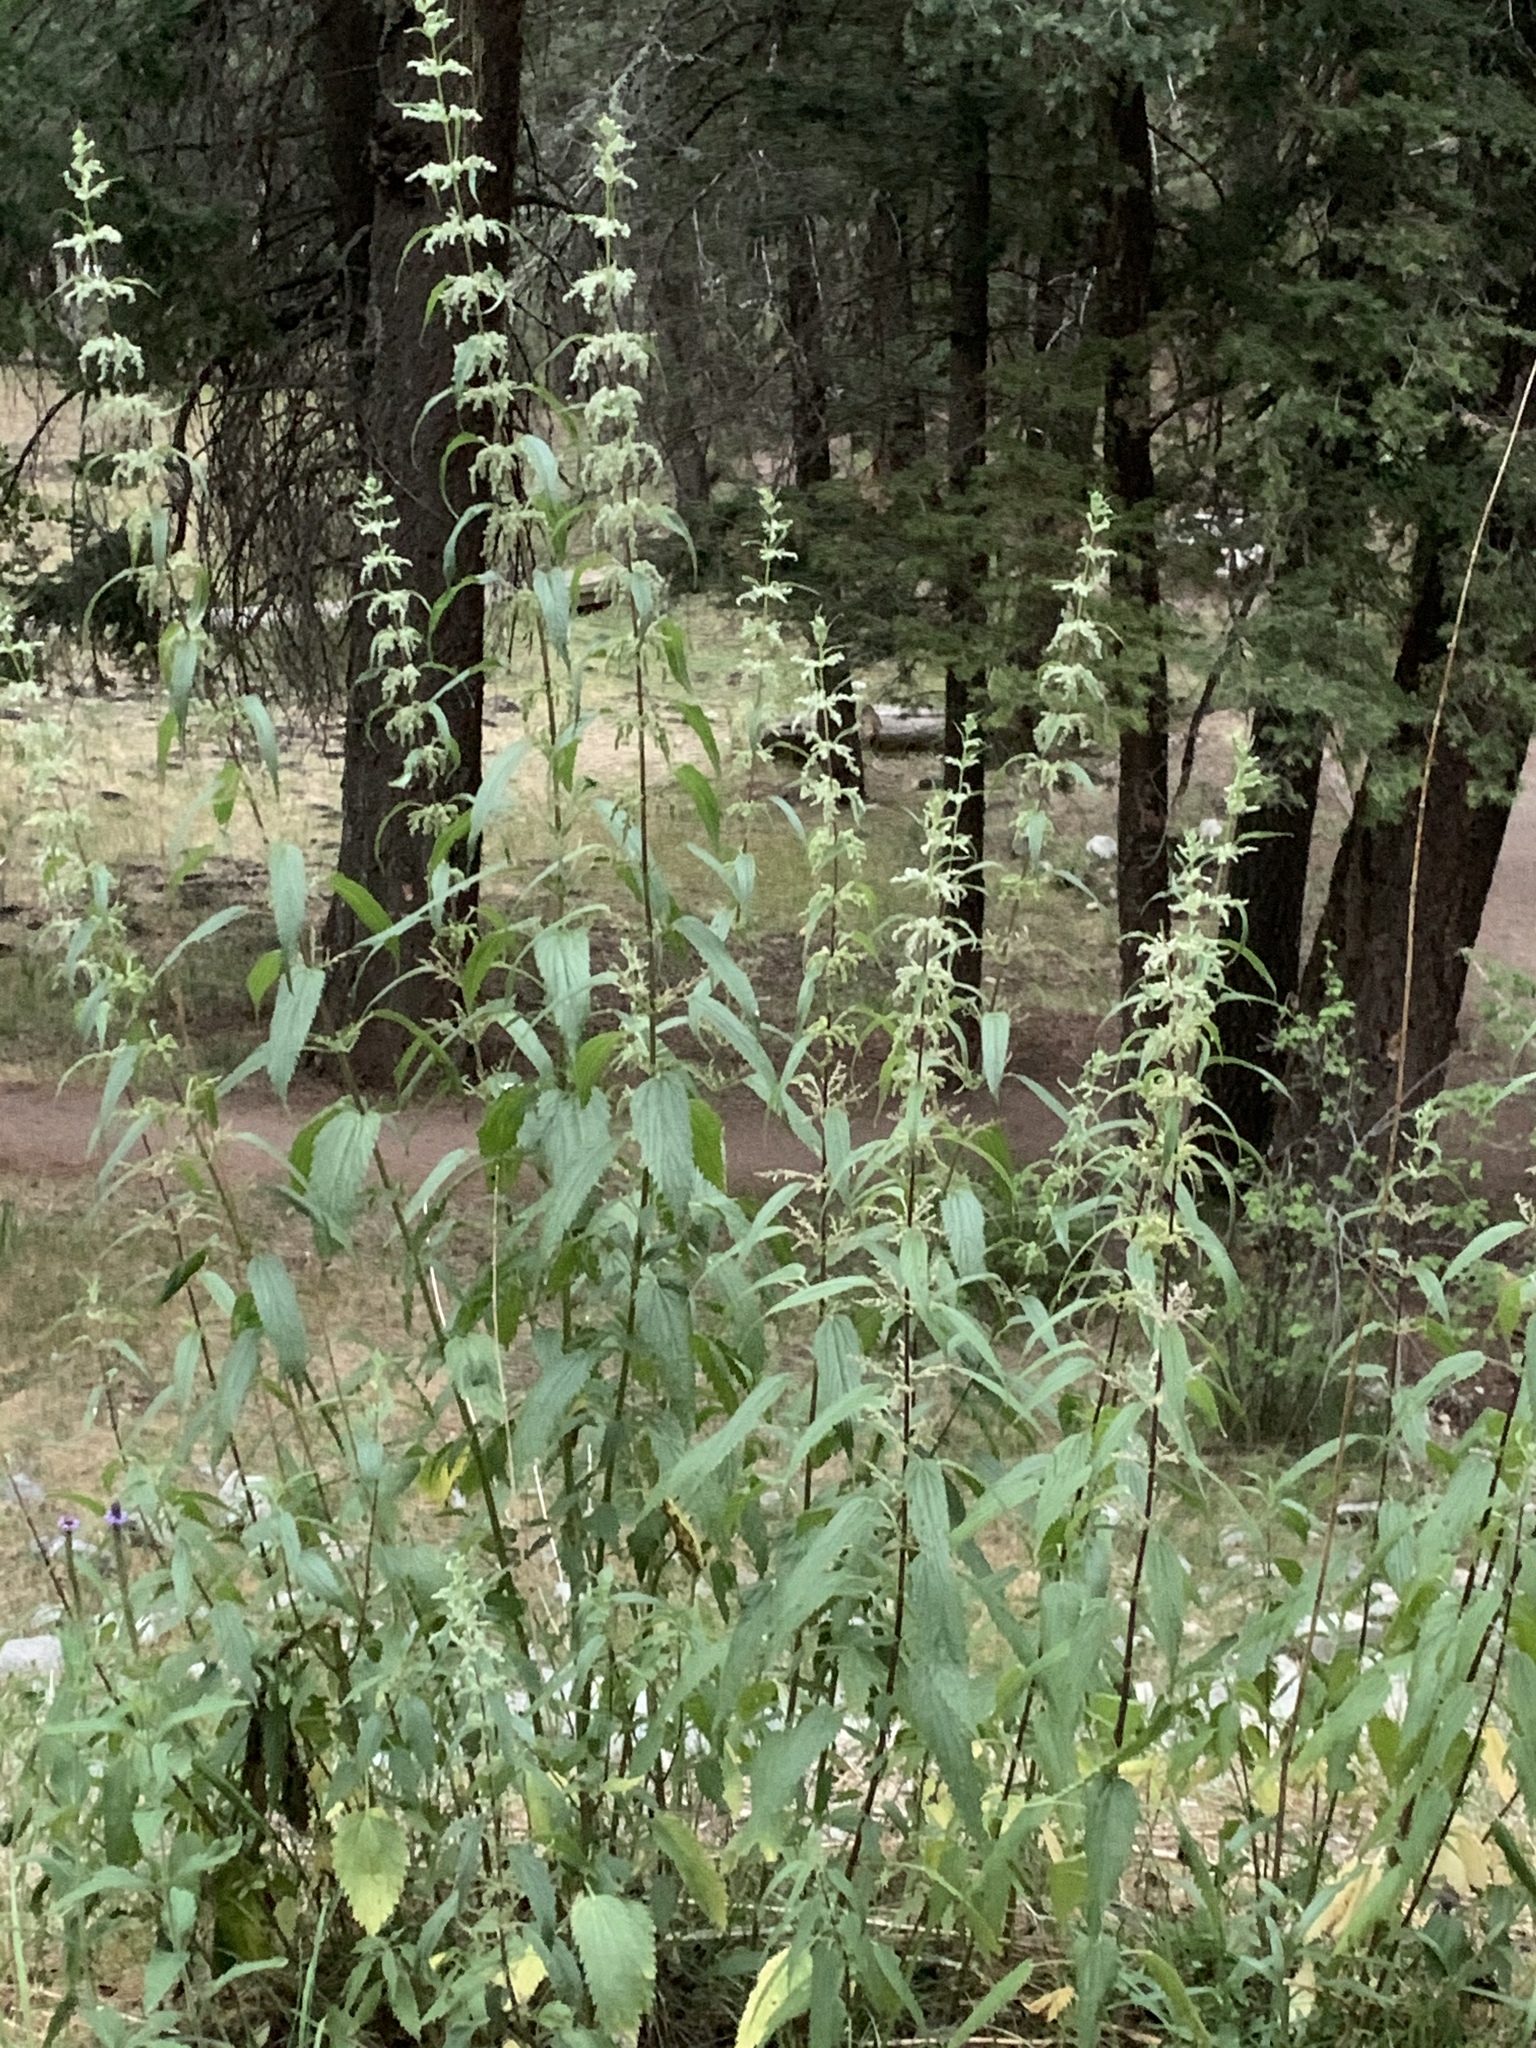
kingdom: Plantae
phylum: Tracheophyta
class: Magnoliopsida
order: Rosales
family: Urticaceae
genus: Urtica
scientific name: Urtica gracilis
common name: Slender stinging nettle
